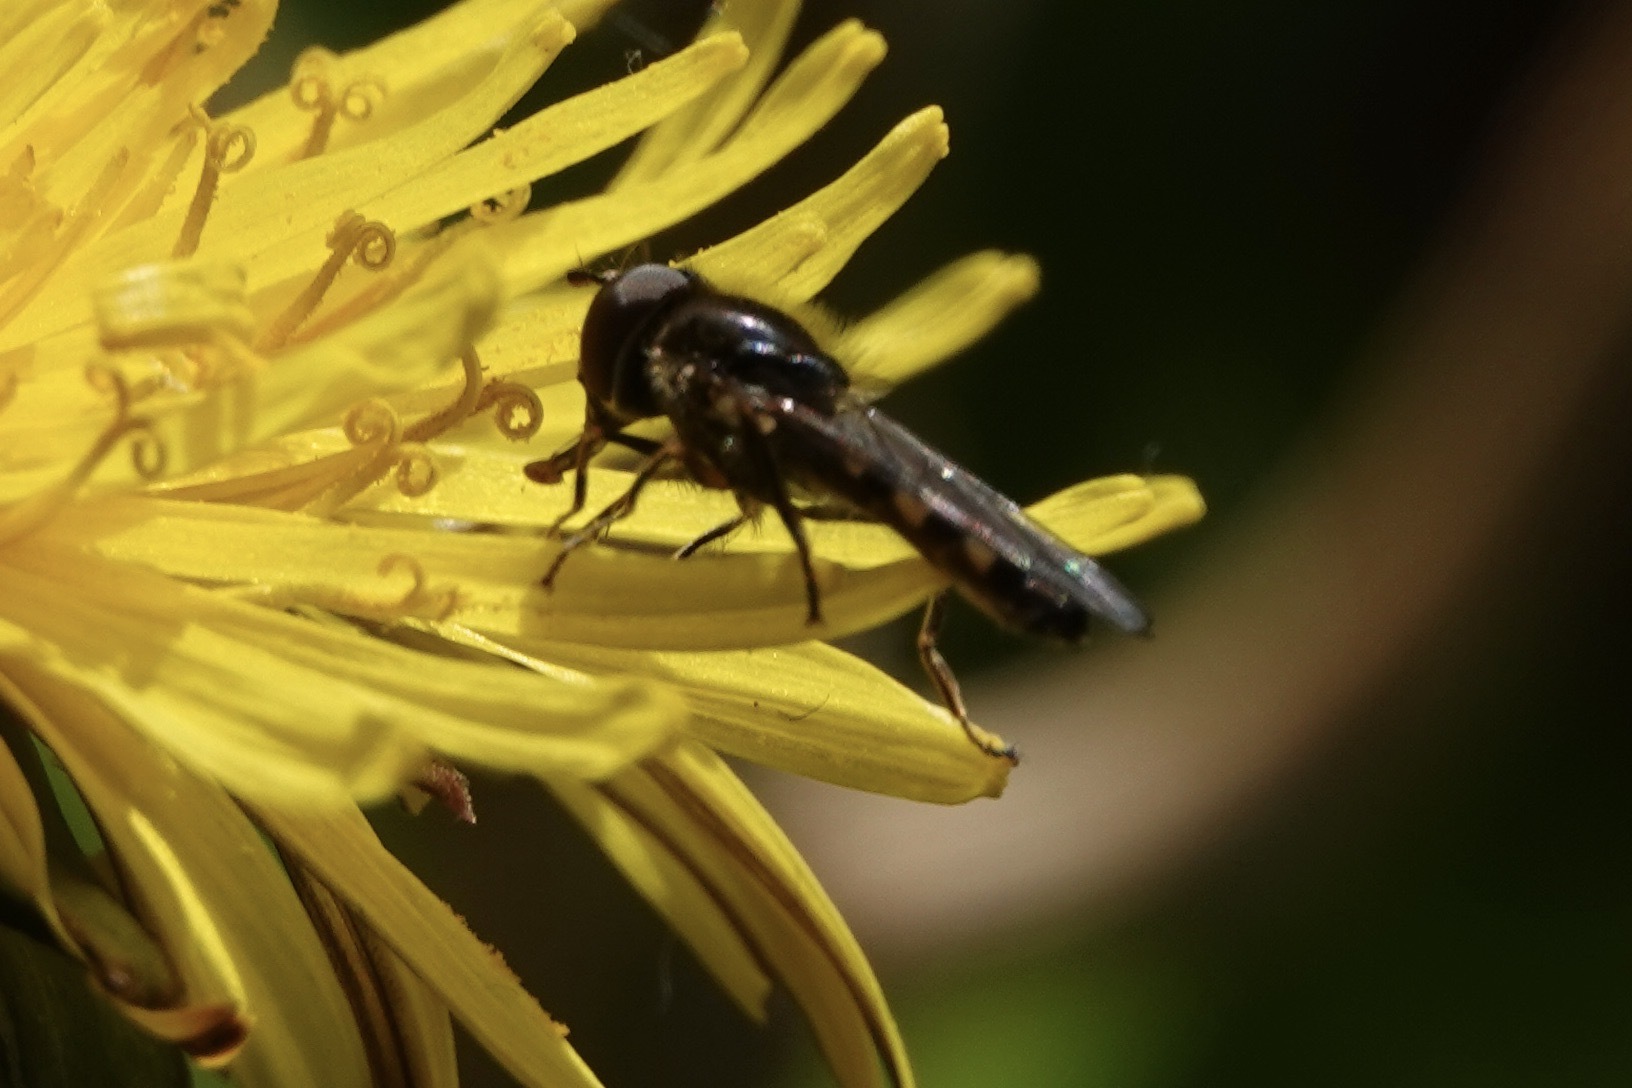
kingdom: Animalia
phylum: Arthropoda
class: Insecta
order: Diptera
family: Syrphidae
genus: Platycheirus
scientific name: Platycheirus
